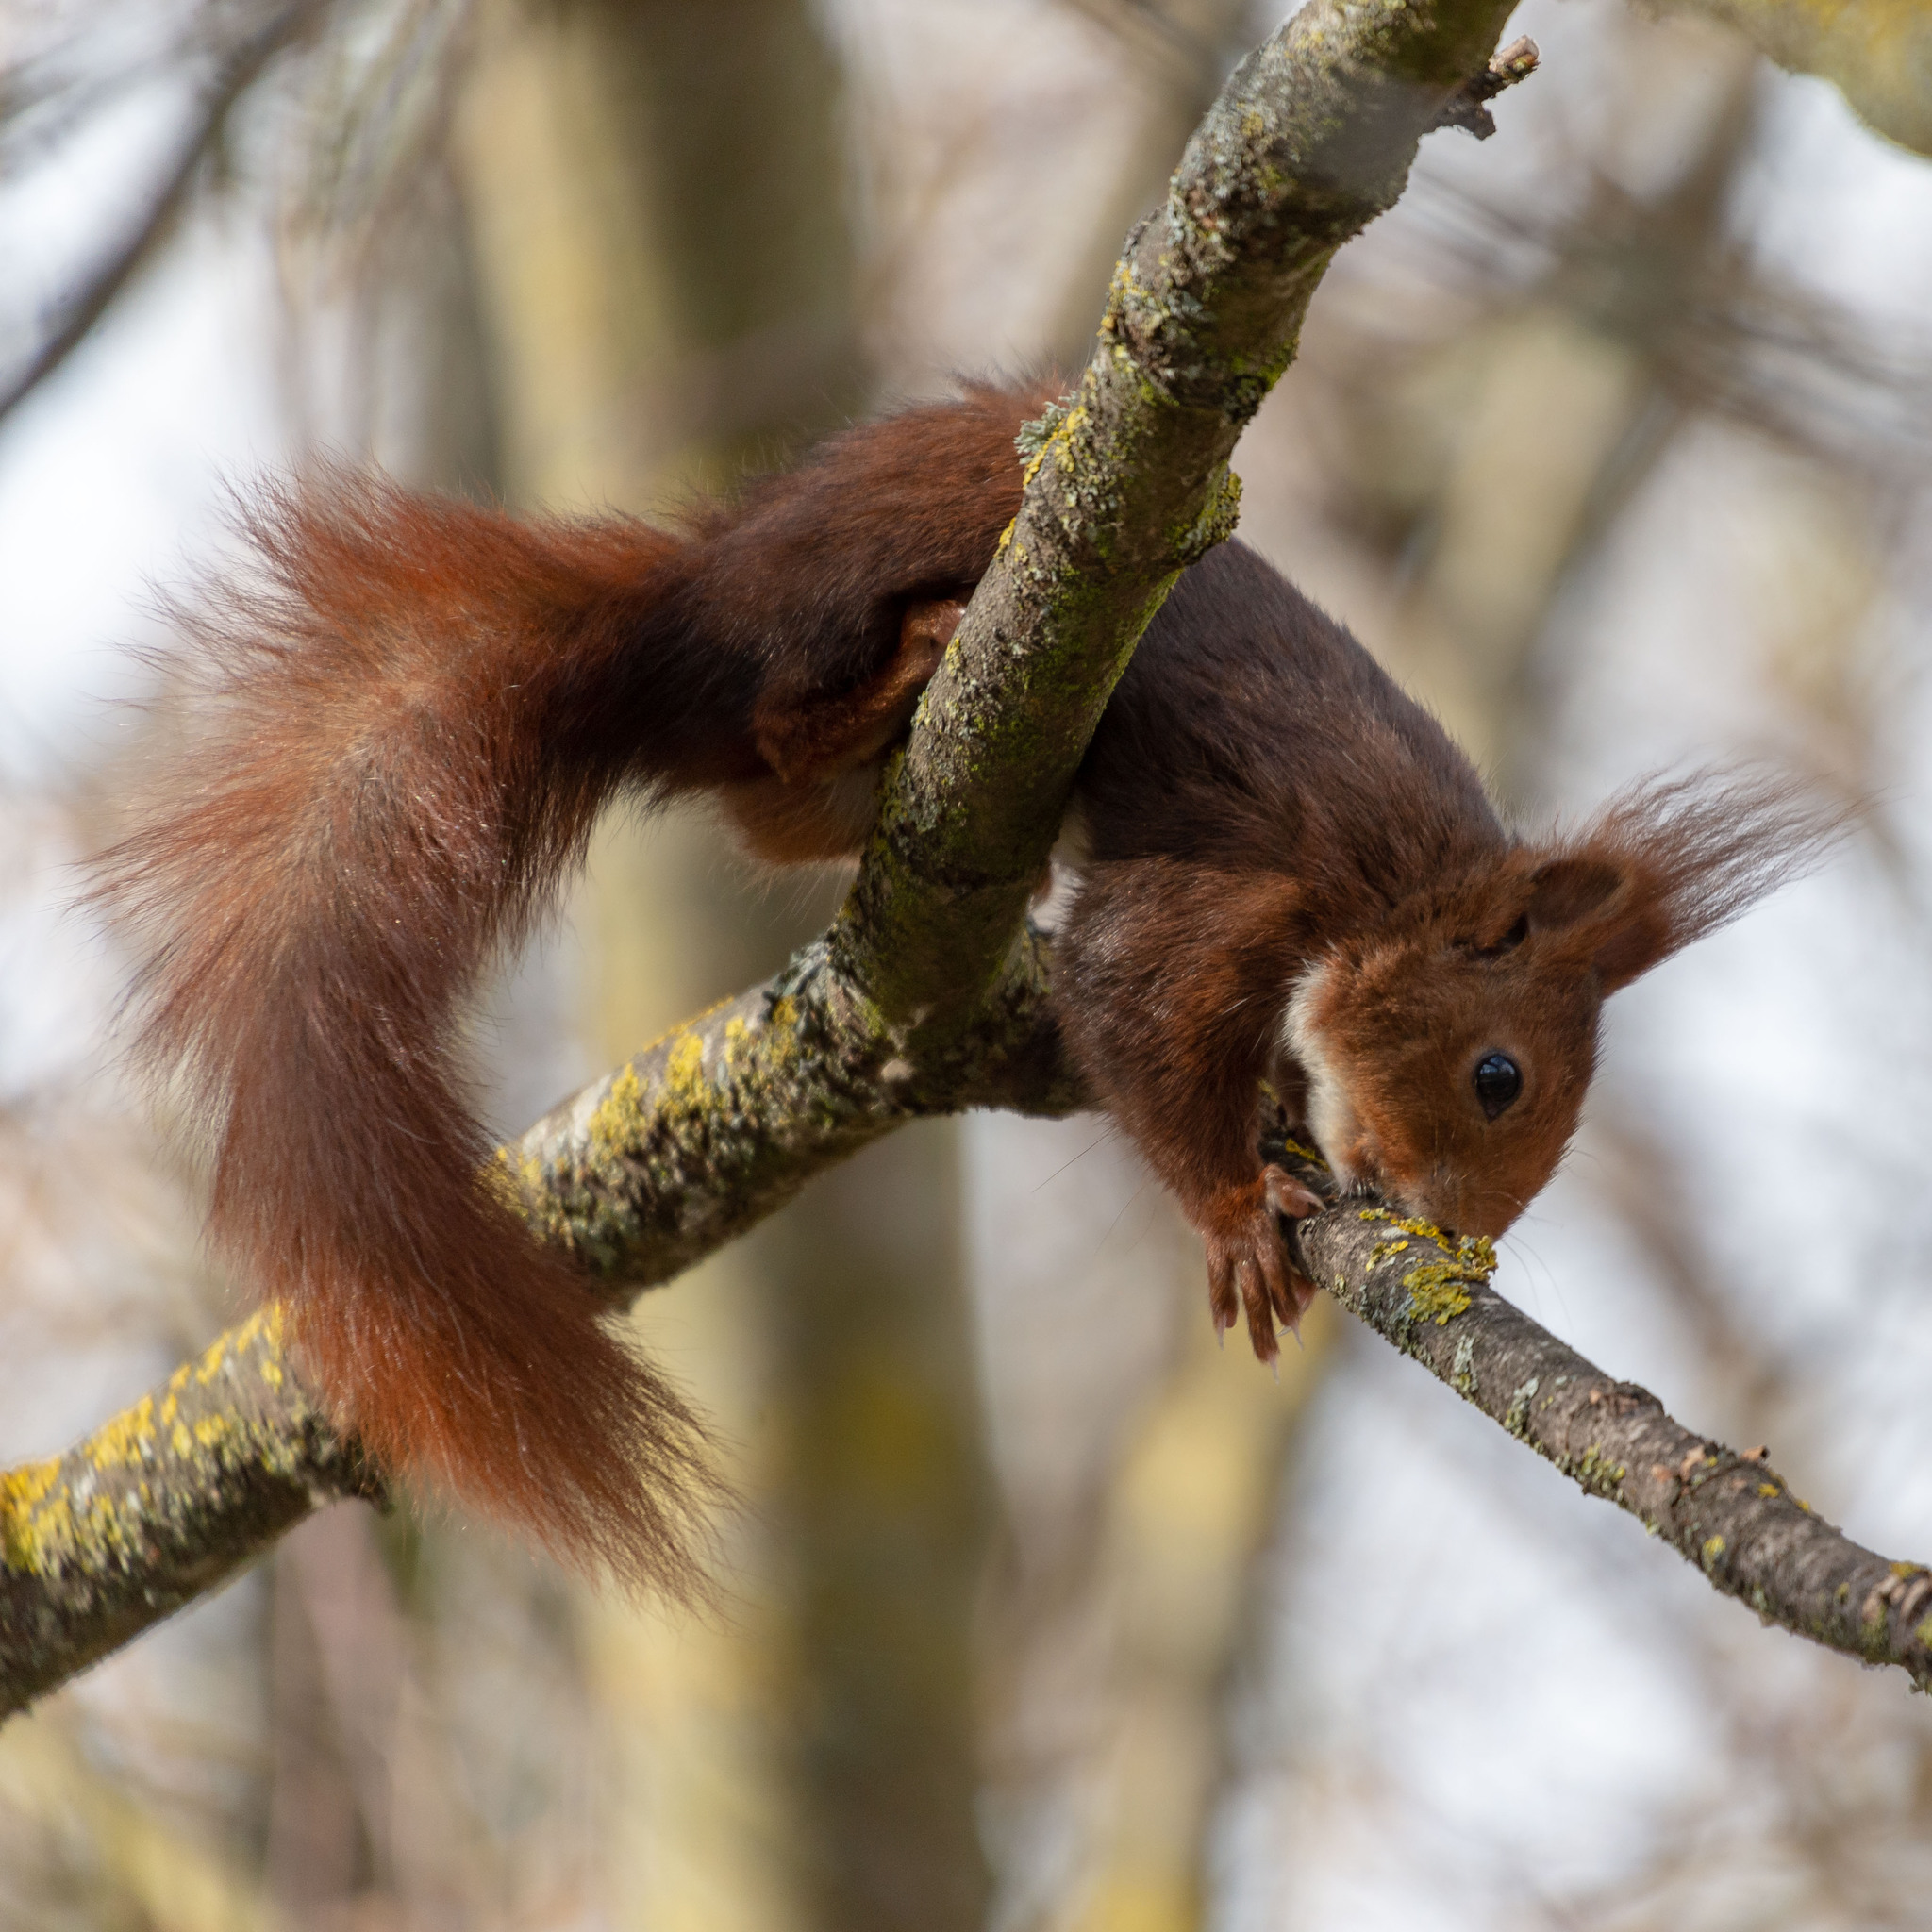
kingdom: Animalia
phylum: Chordata
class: Mammalia
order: Rodentia
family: Sciuridae
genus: Sciurus
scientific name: Sciurus vulgaris
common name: Eurasian red squirrel
